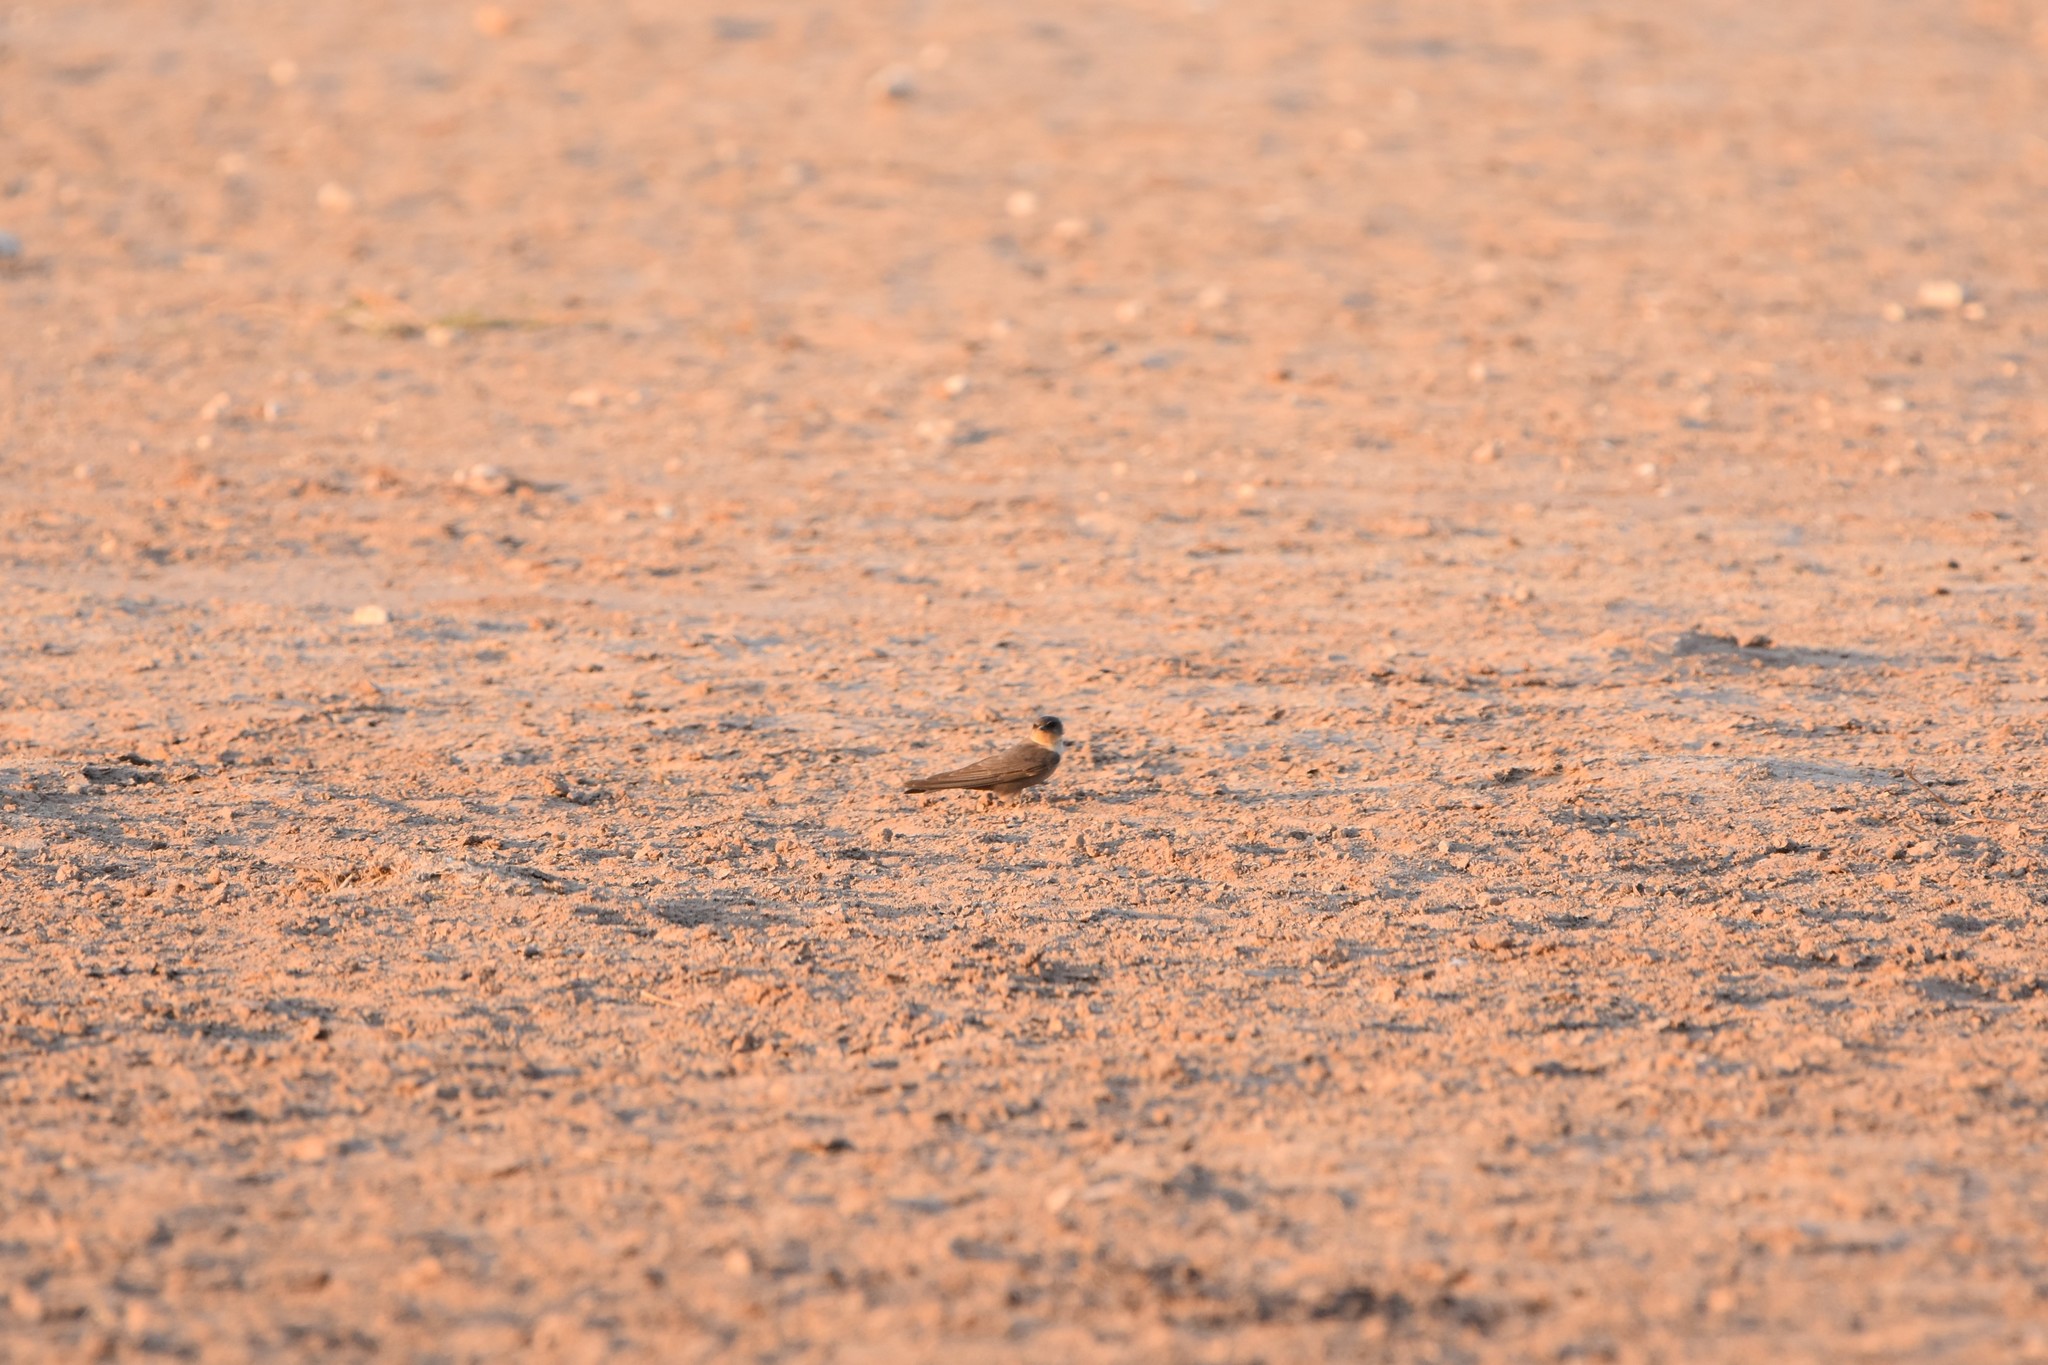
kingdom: Animalia
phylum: Chordata
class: Aves
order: Passeriformes
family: Hirundinidae
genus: Ptyonoprogne
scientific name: Ptyonoprogne fuligula
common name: Rock martin
